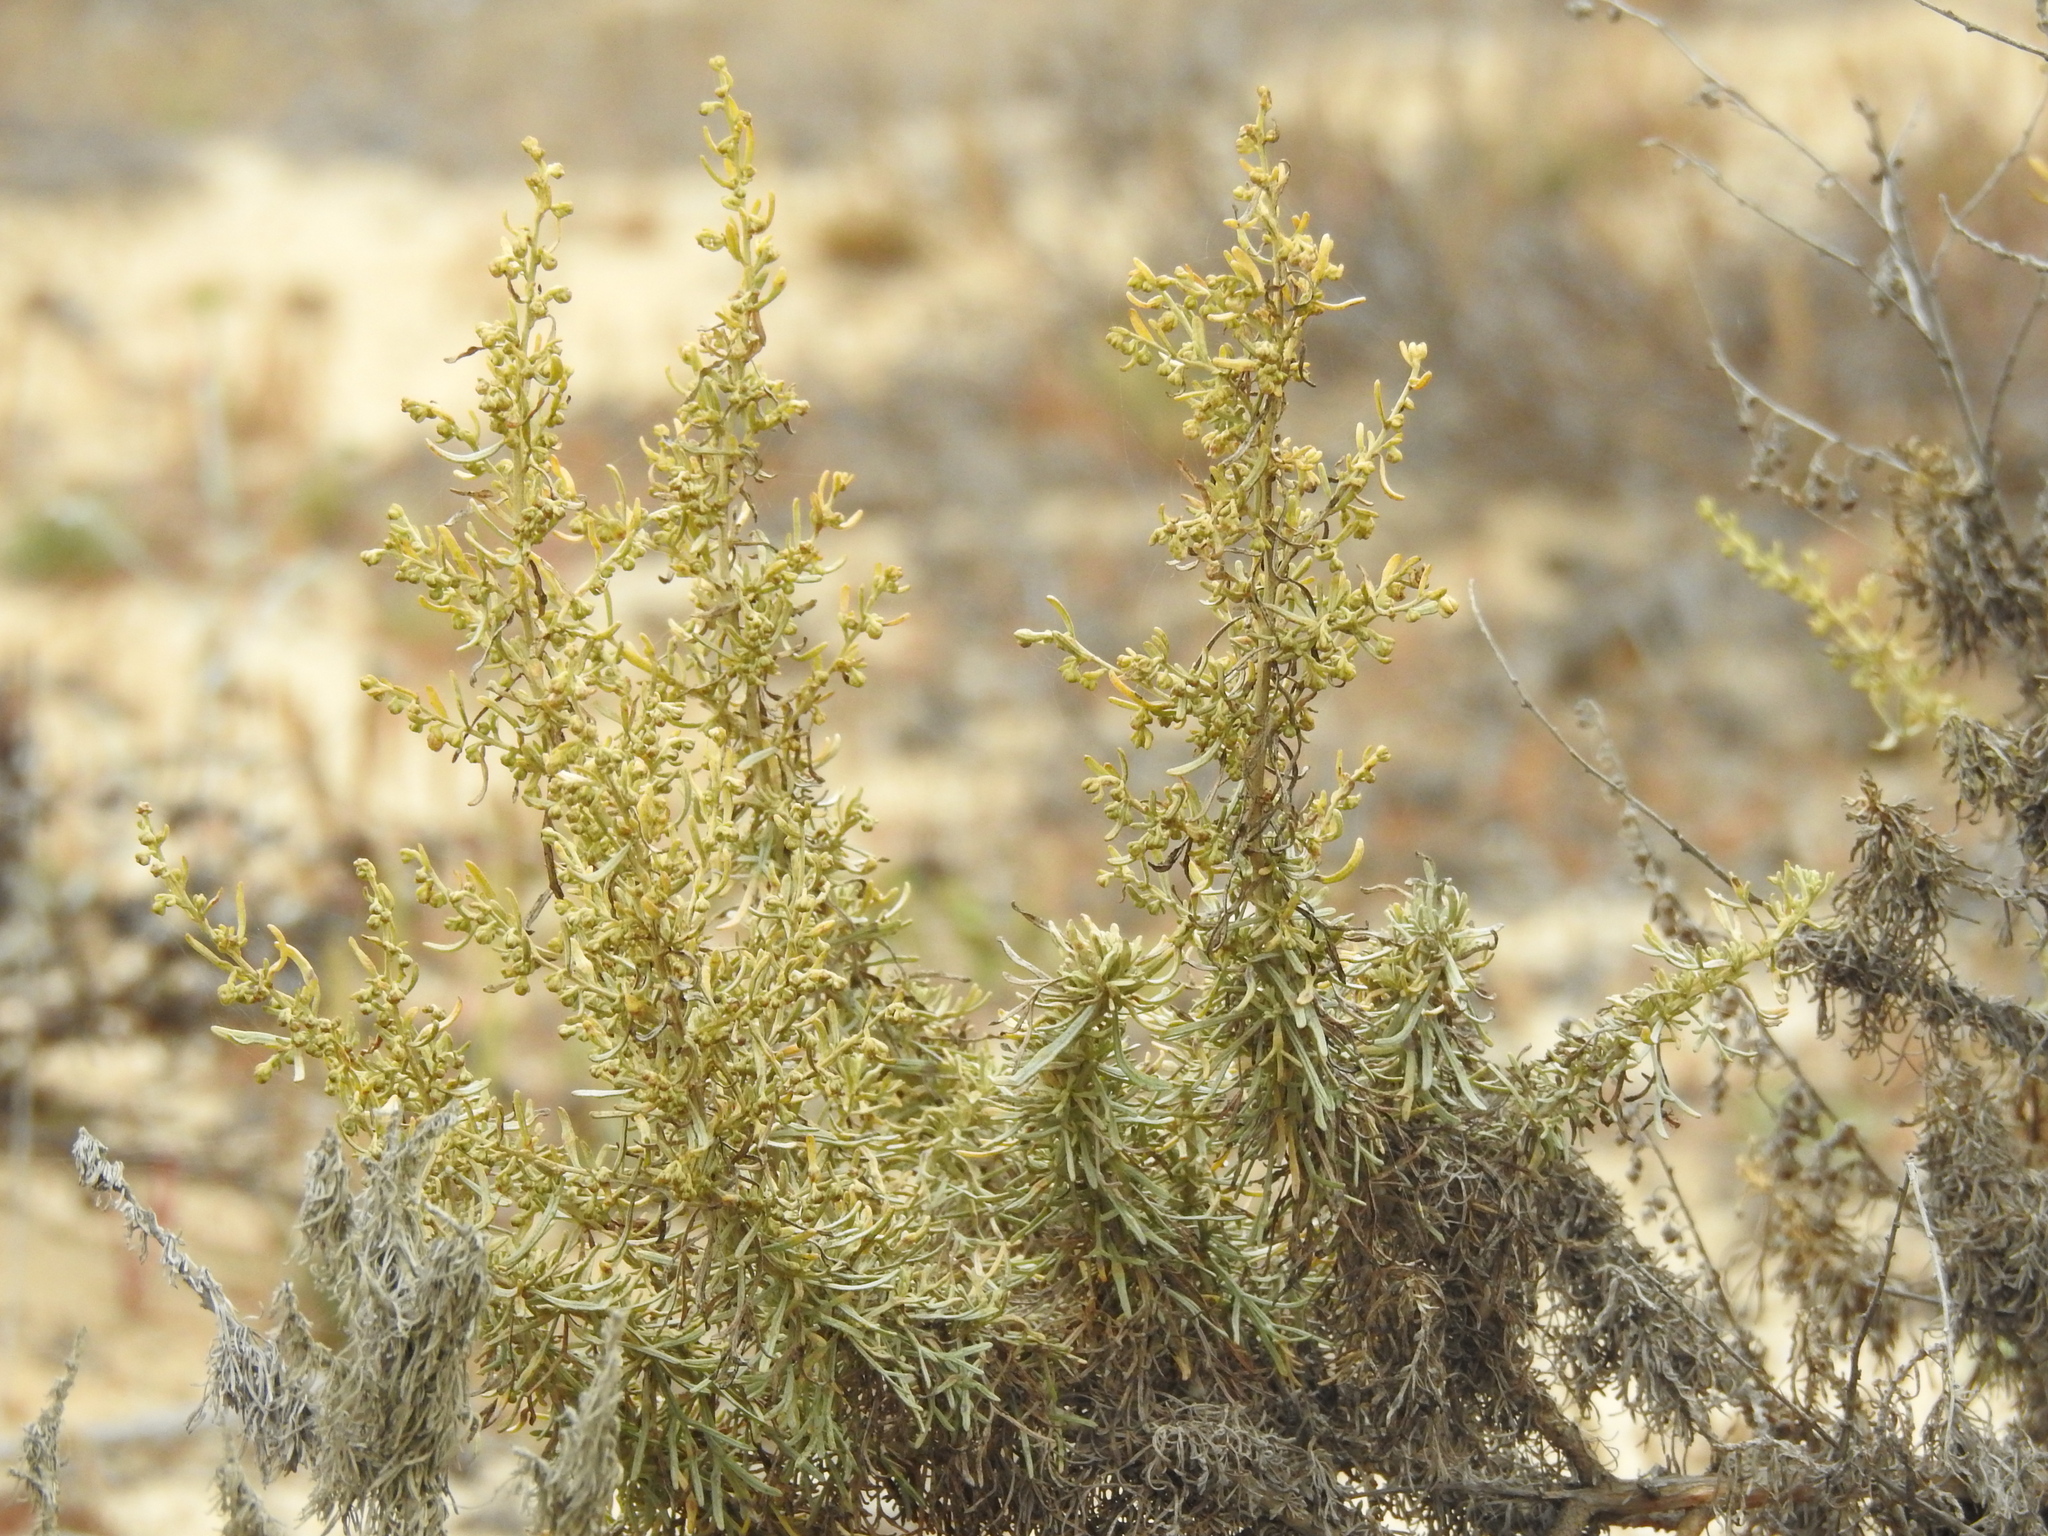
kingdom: Plantae
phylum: Tracheophyta
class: Magnoliopsida
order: Asterales
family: Asteraceae
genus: Artemisia
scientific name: Artemisia californica
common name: California sagebrush
